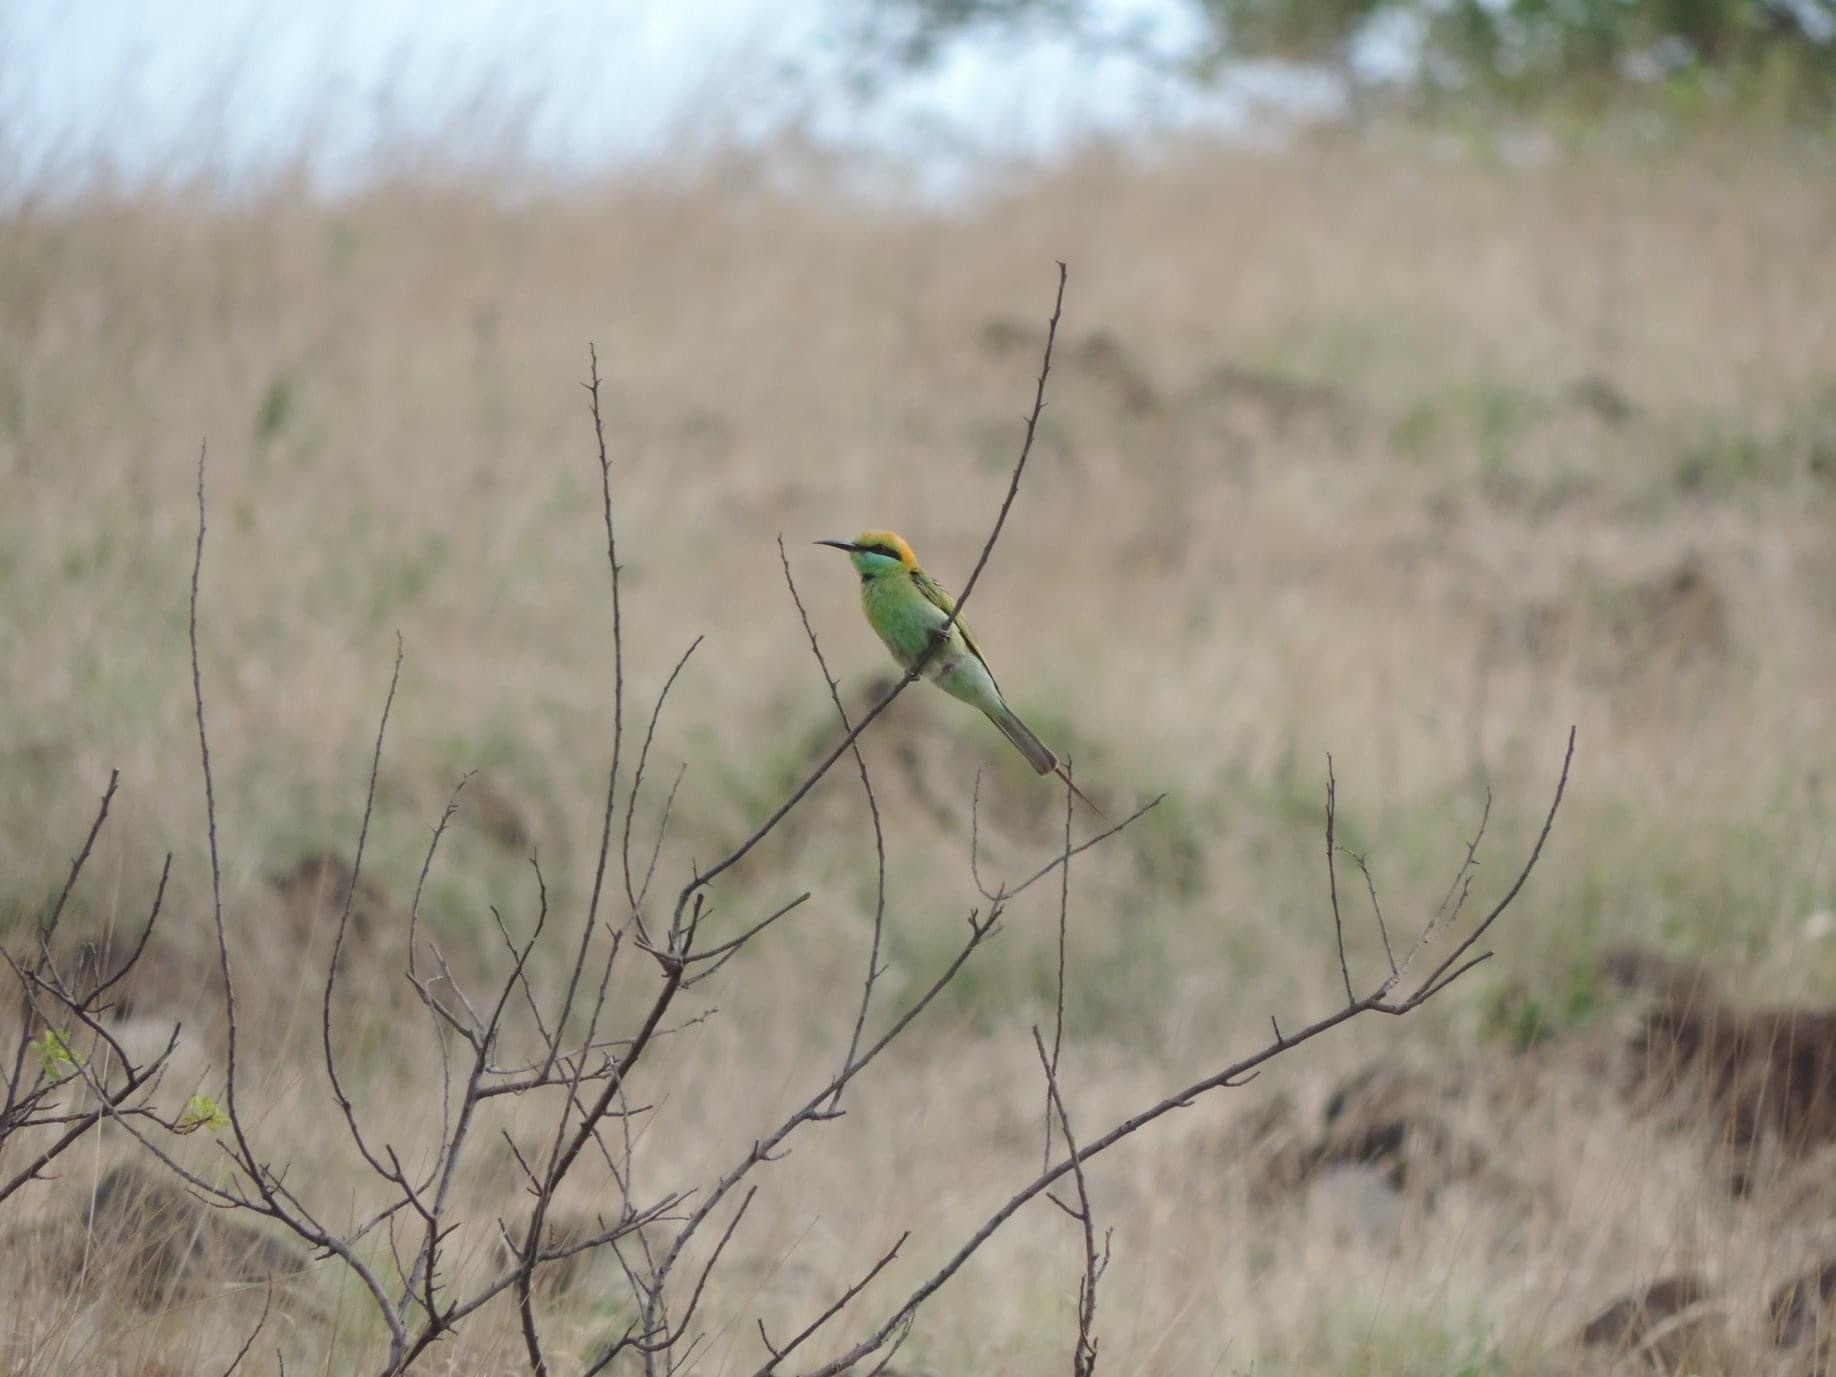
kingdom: Animalia
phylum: Chordata
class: Aves
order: Coraciiformes
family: Meropidae
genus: Merops
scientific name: Merops orientalis
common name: Green bee-eater
